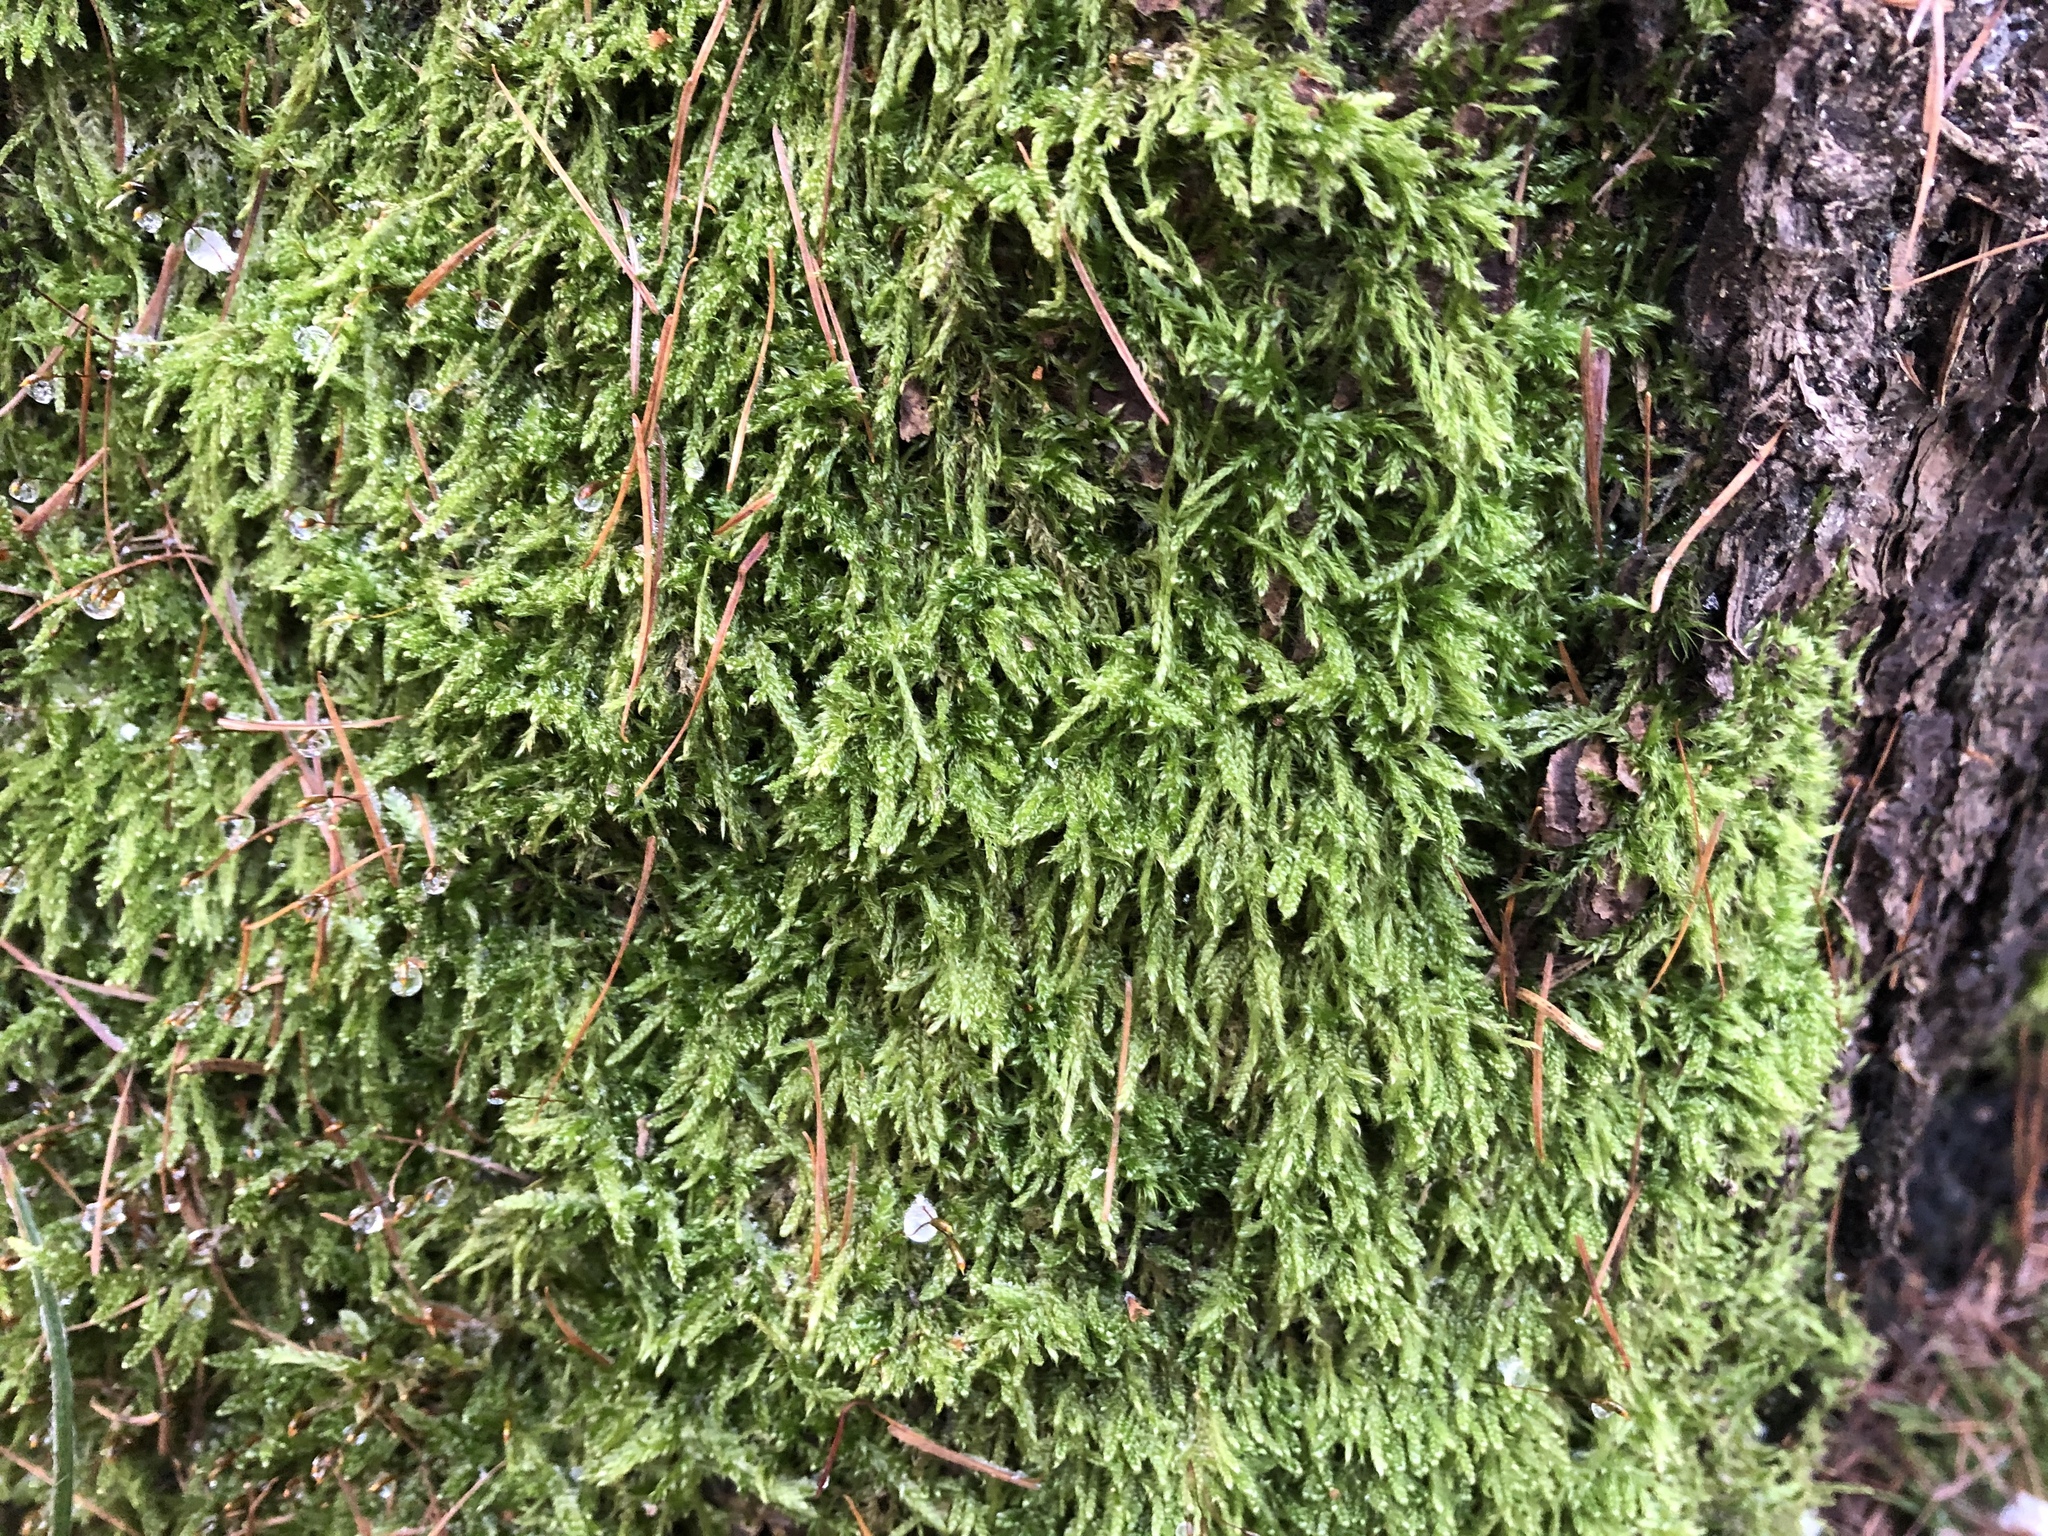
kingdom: Plantae
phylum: Bryophyta
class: Bryopsida
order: Hypnales
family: Hypnaceae
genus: Hypnum
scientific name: Hypnum cupressiforme
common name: Cypress-leaved plait-moss
